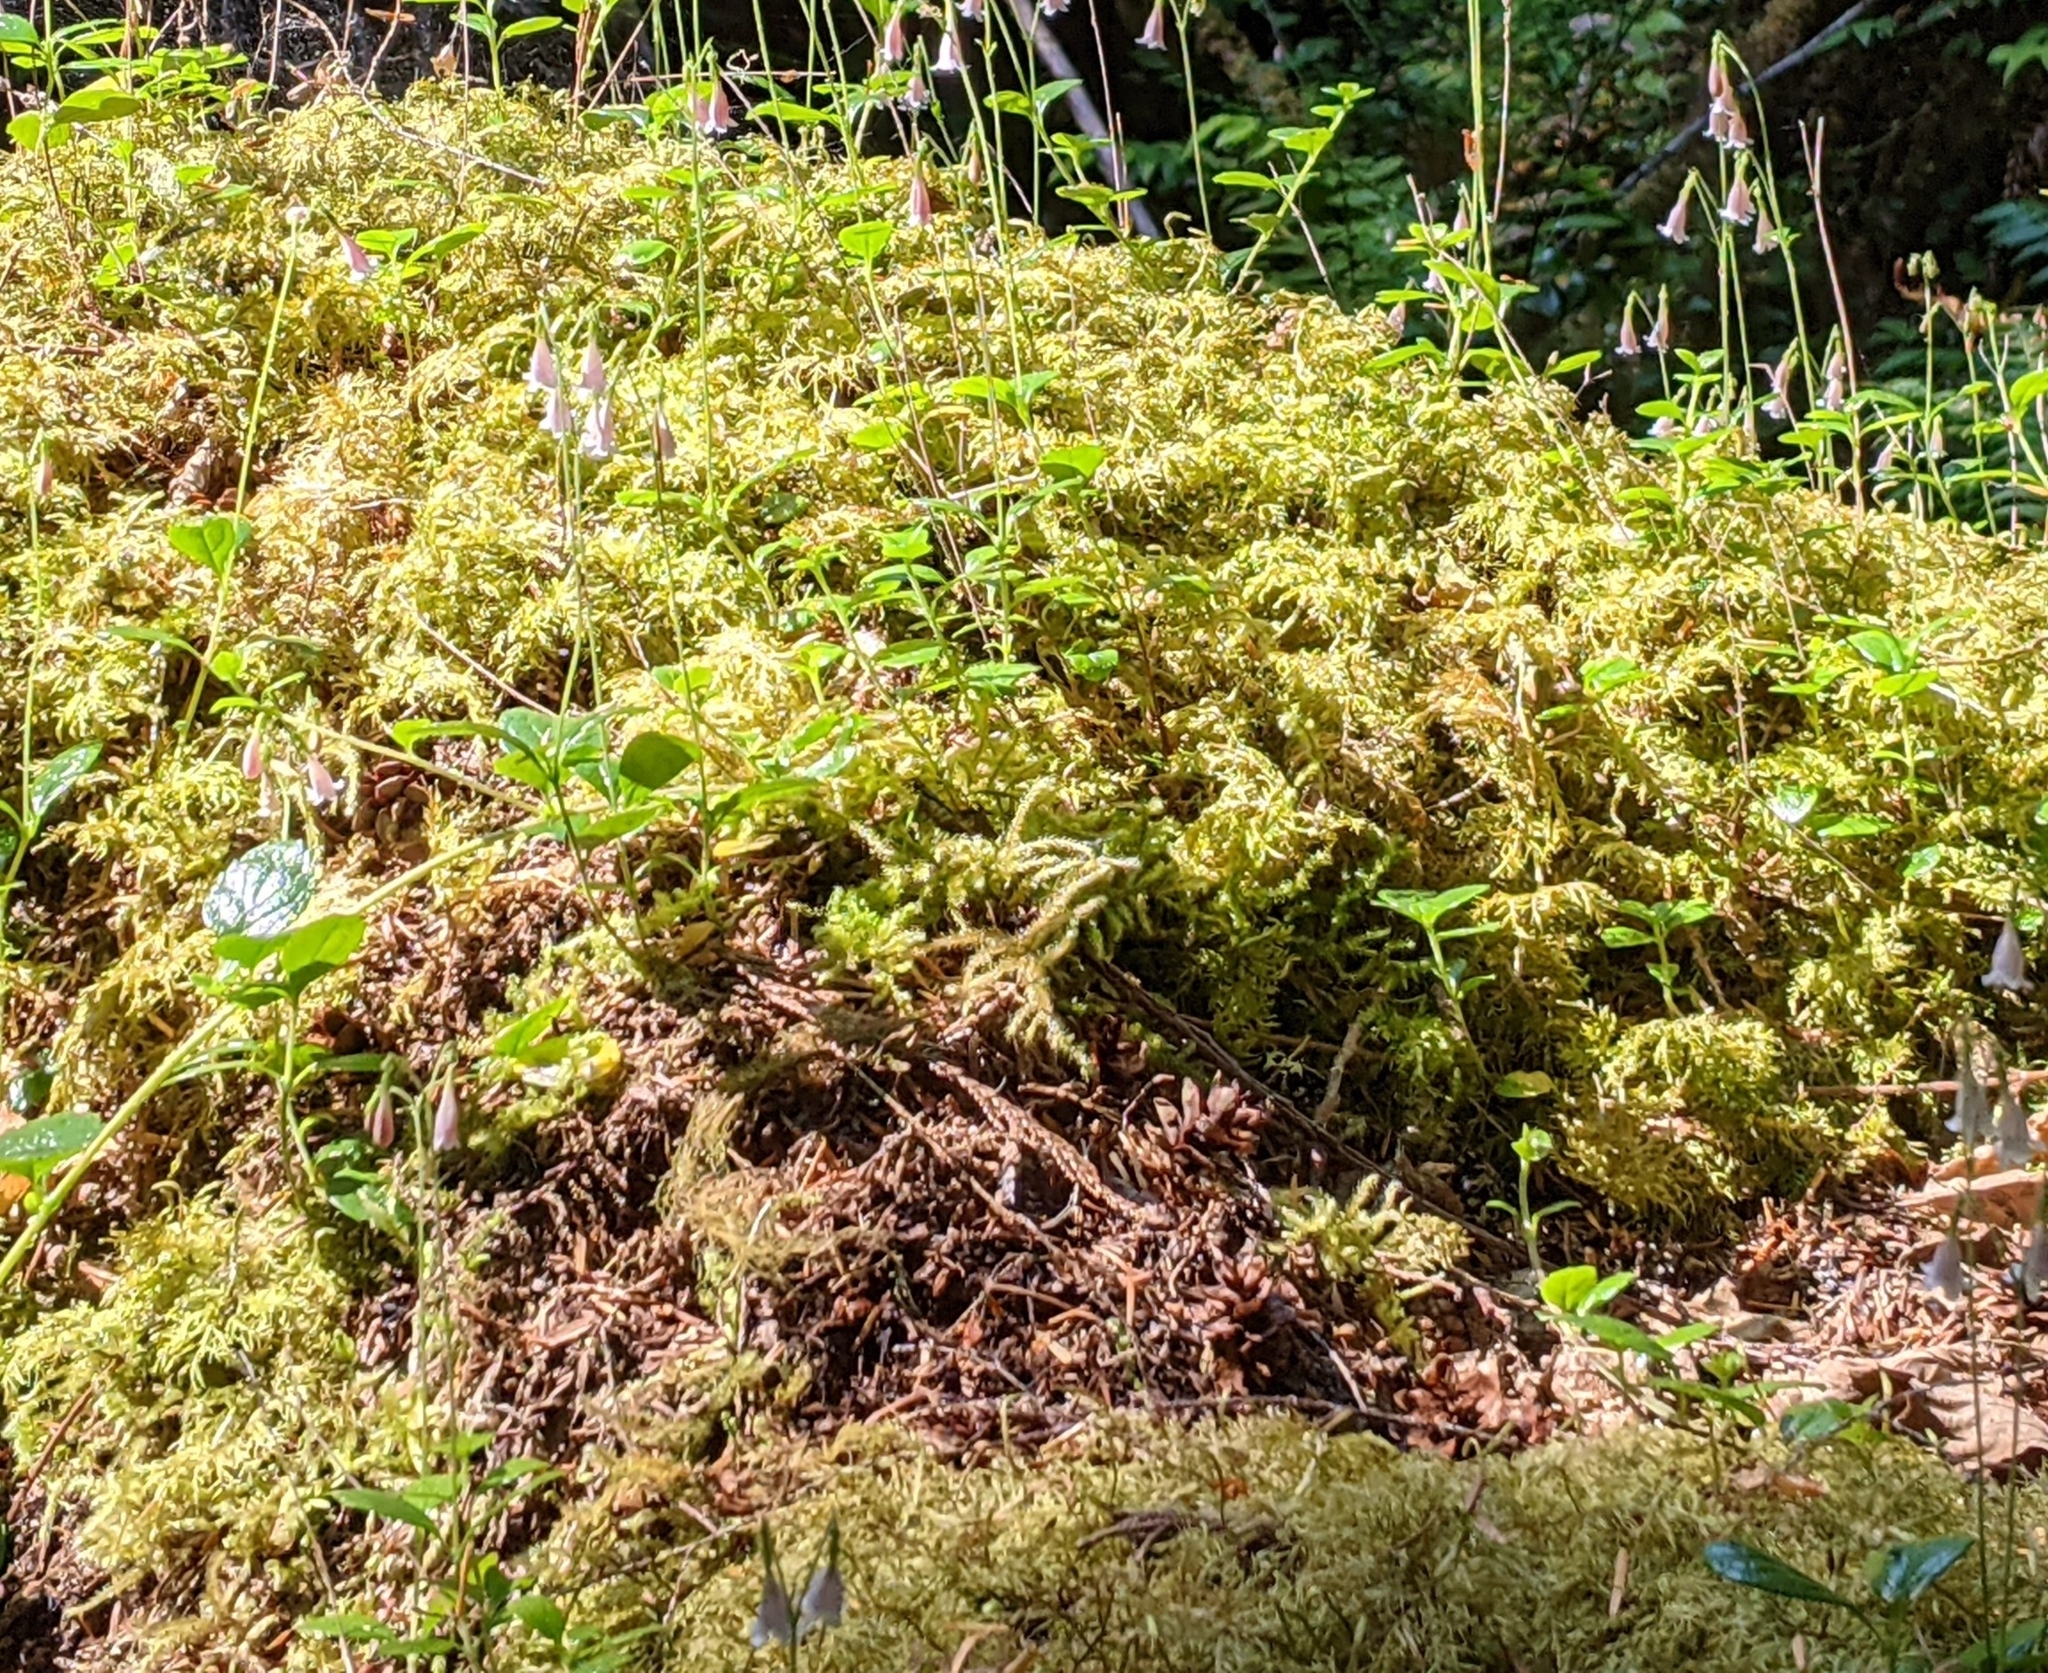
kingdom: Plantae
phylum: Bryophyta
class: Bryopsida
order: Hypnales
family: Hylocomiaceae
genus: Hylocomium
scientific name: Hylocomium splendens
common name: Stairstep moss
